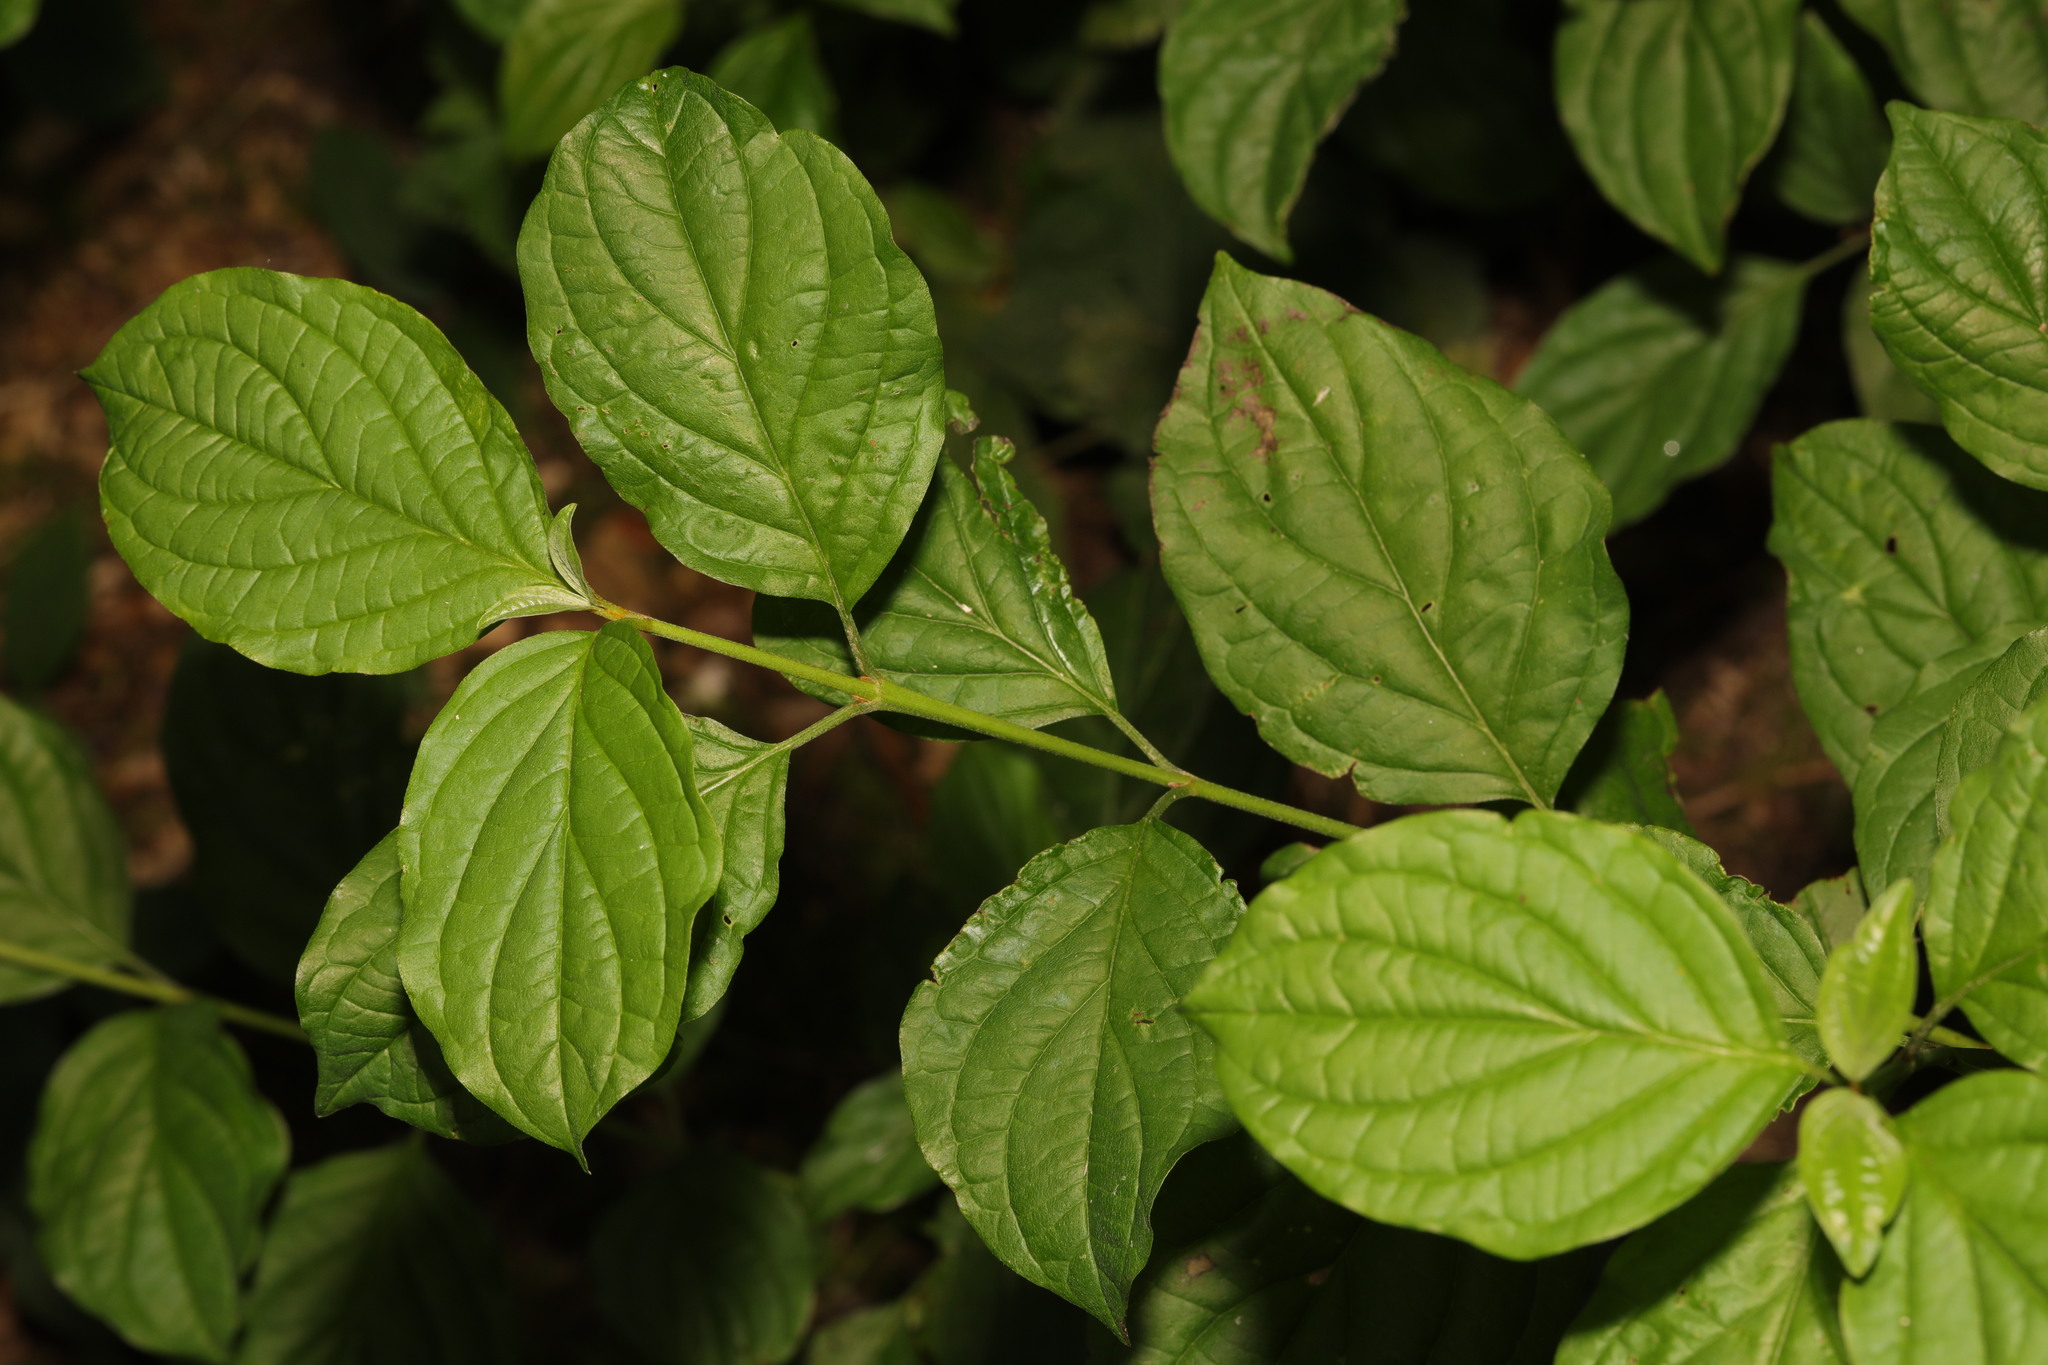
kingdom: Plantae
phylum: Tracheophyta
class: Magnoliopsida
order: Cornales
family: Cornaceae
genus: Cornus
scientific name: Cornus sanguinea
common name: Dogwood
